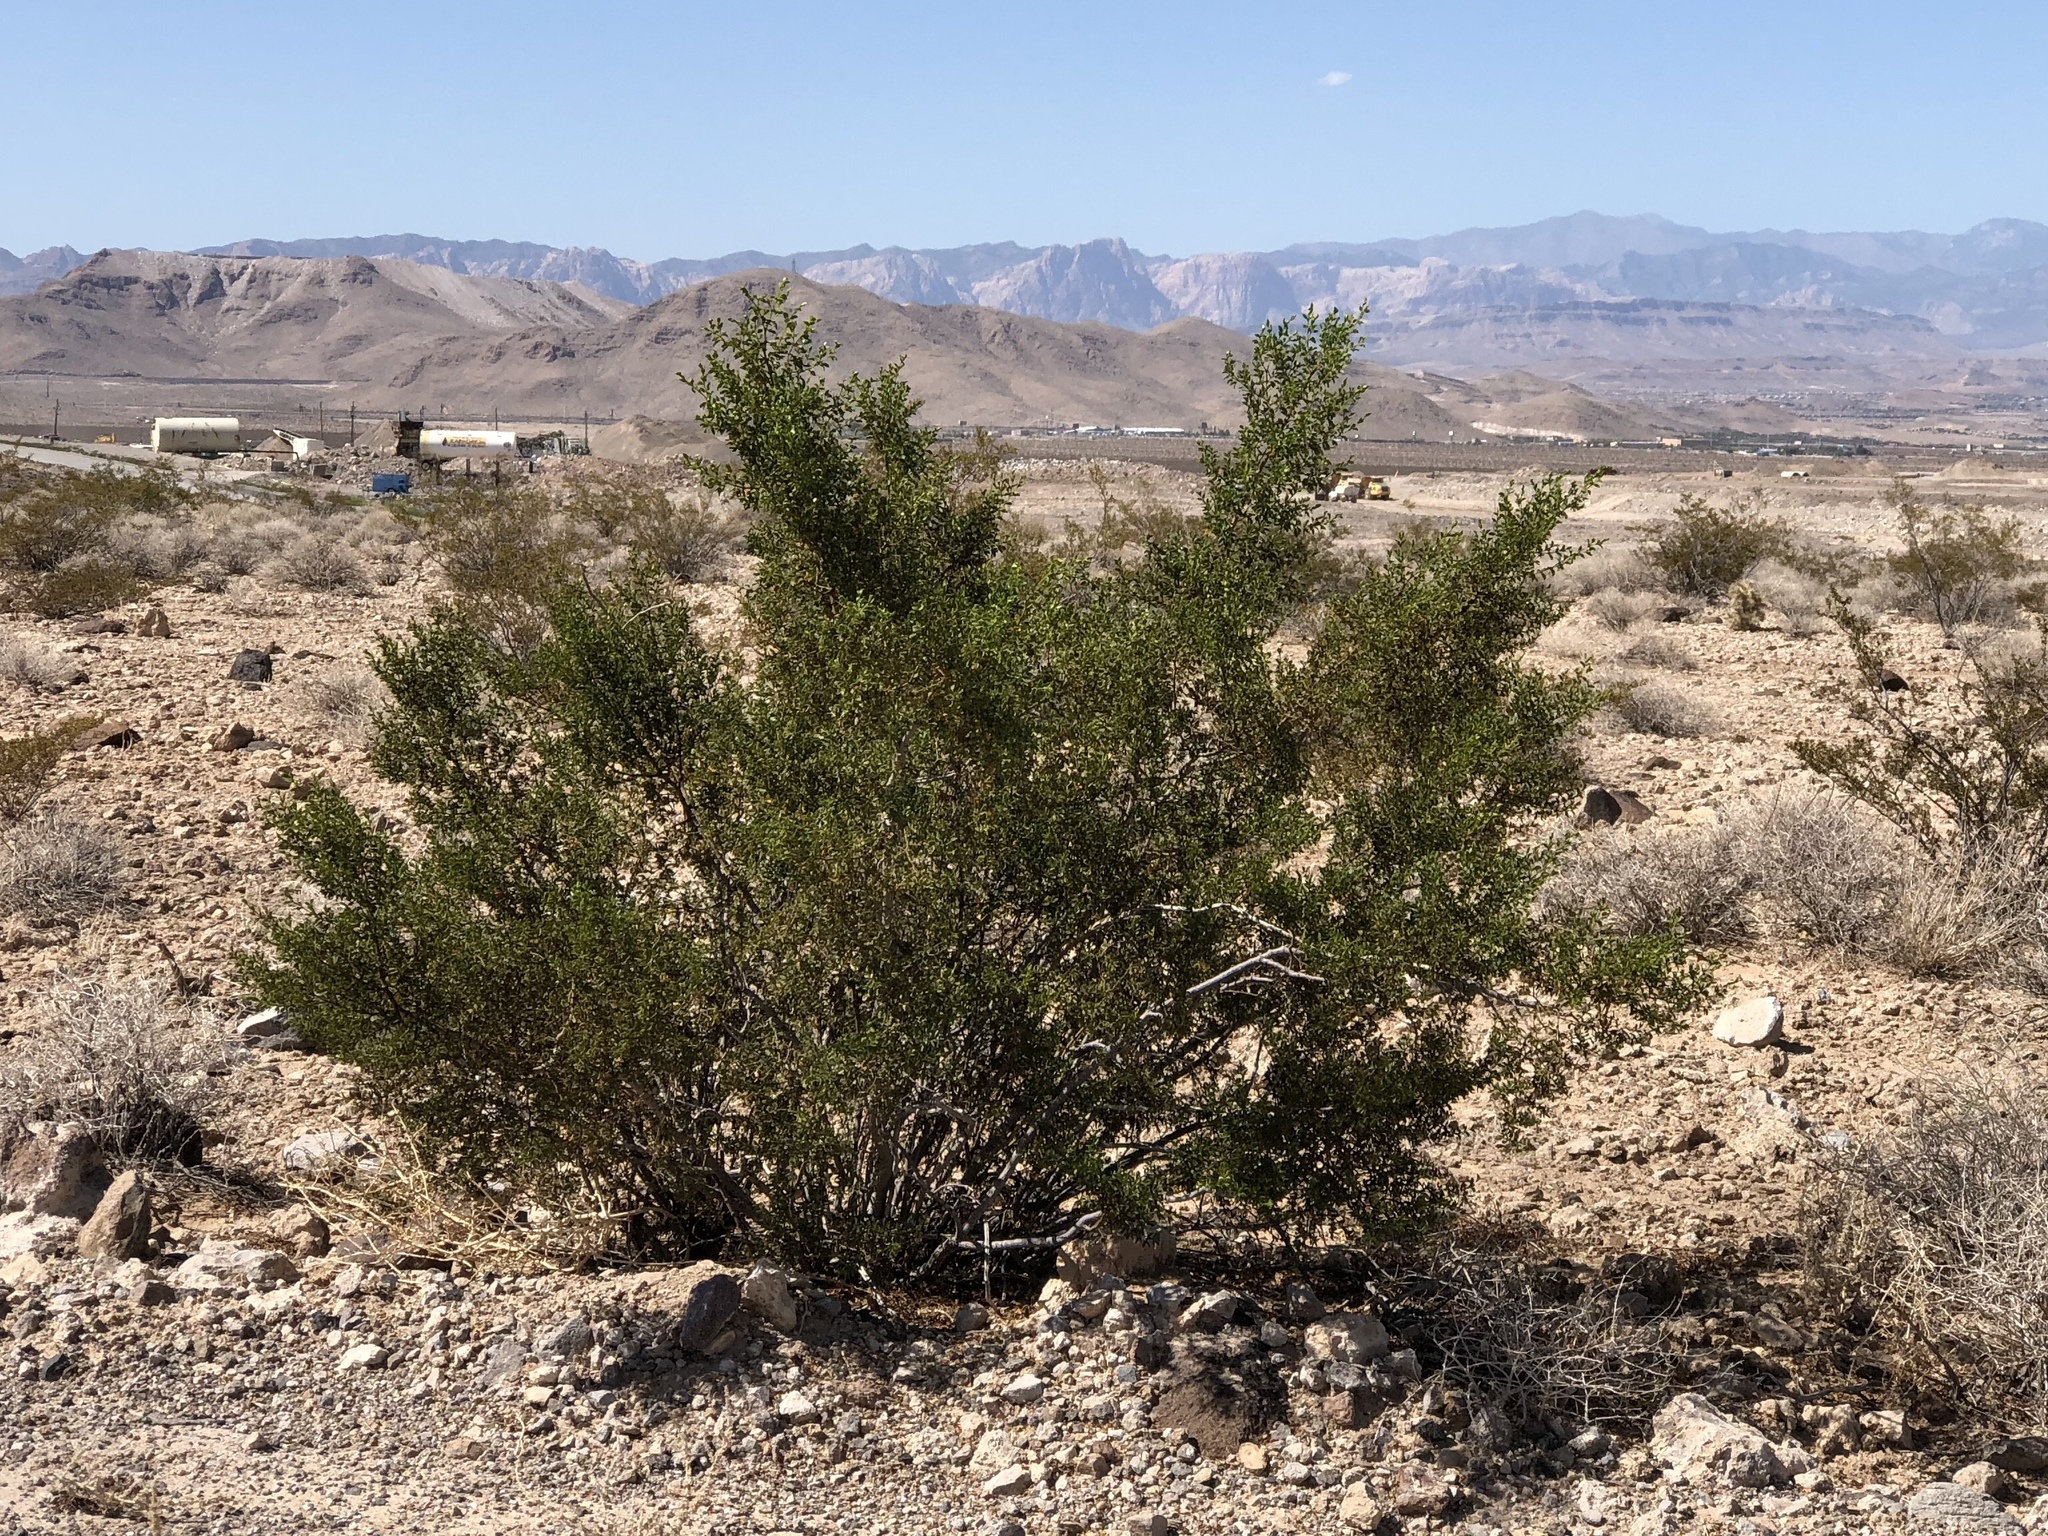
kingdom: Plantae
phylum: Tracheophyta
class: Magnoliopsida
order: Zygophyllales
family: Zygophyllaceae
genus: Larrea
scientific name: Larrea tridentata
